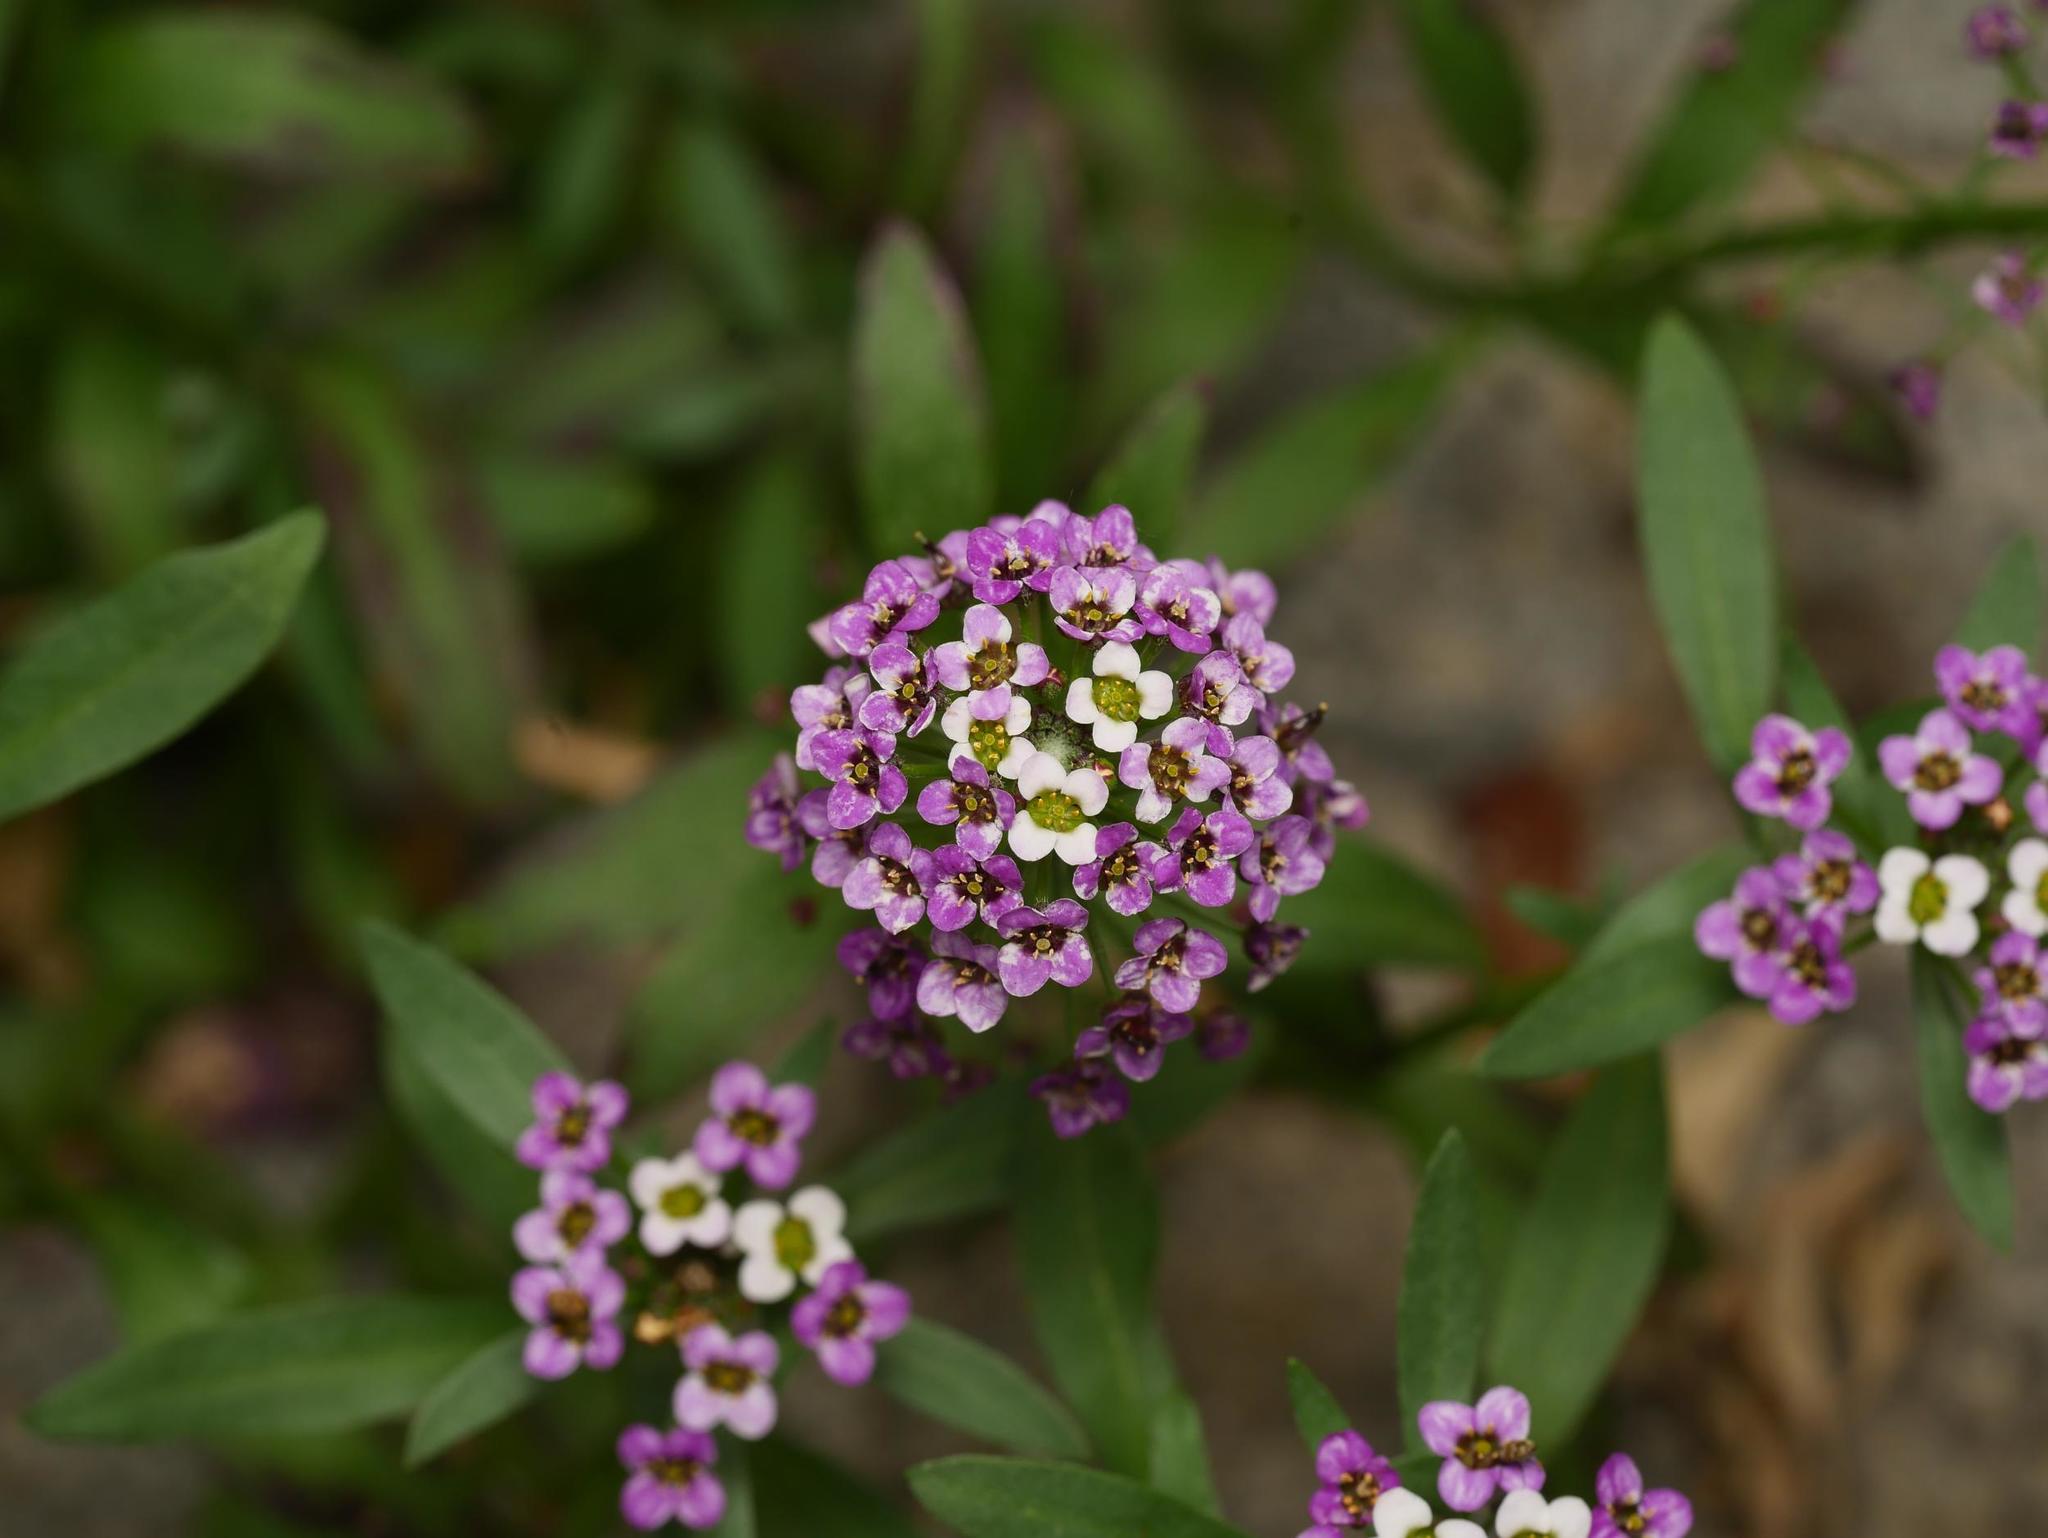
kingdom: Plantae
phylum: Tracheophyta
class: Magnoliopsida
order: Brassicales
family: Brassicaceae
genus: Lobularia
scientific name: Lobularia maritima
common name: Sweet alison
